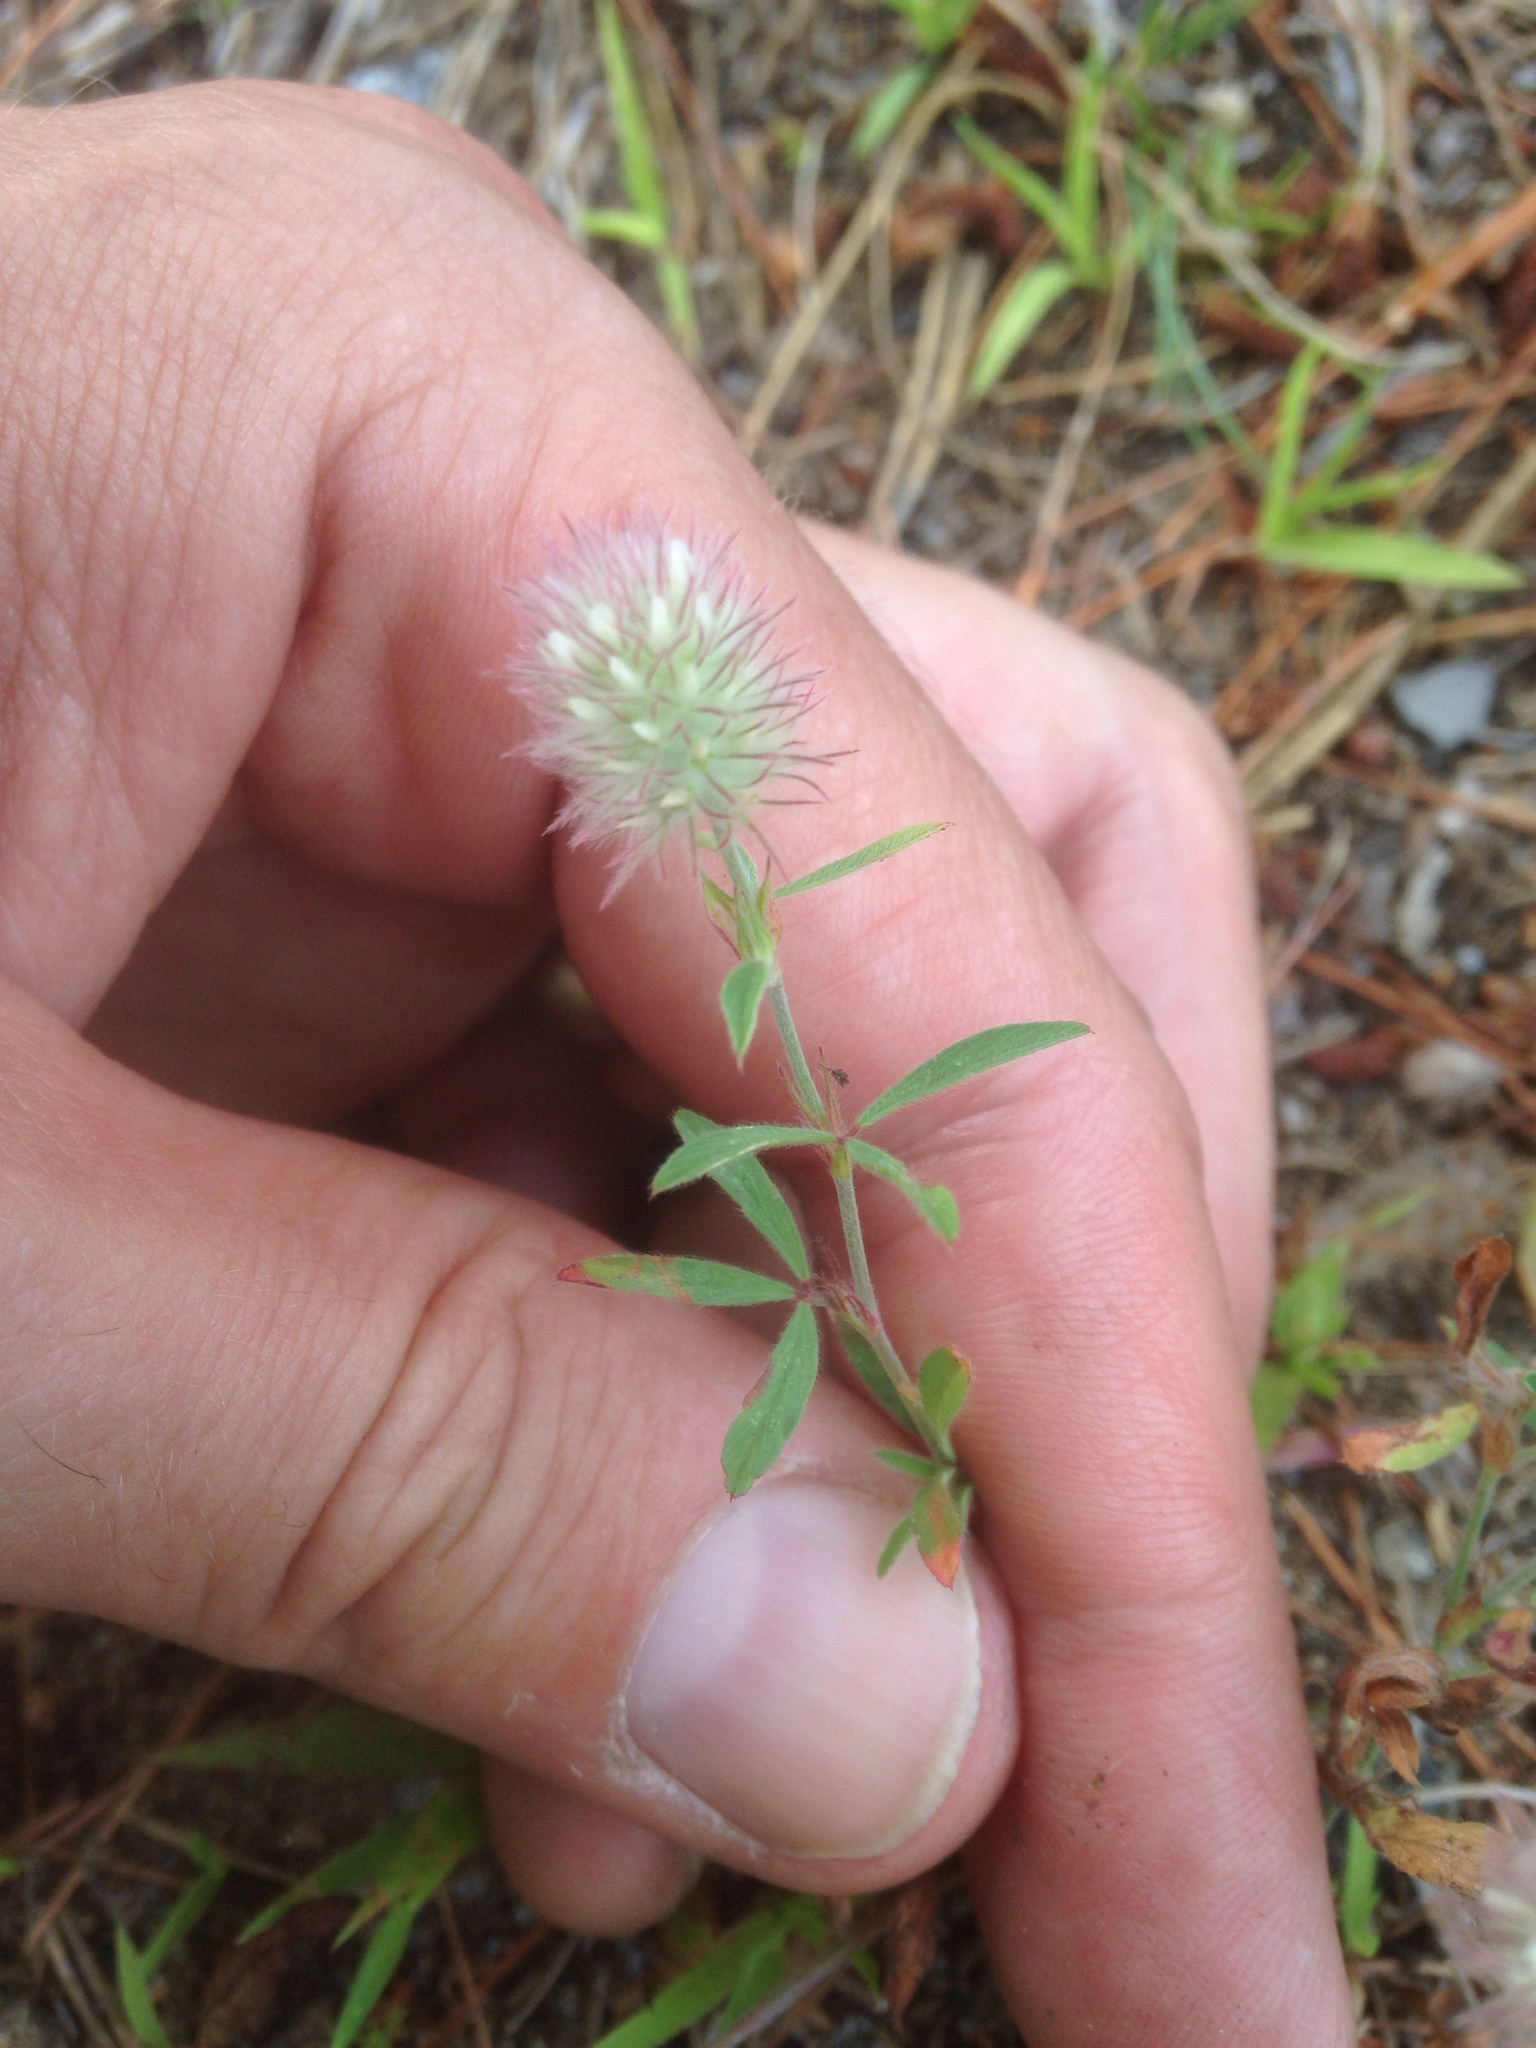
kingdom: Plantae
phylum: Tracheophyta
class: Magnoliopsida
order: Fabales
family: Fabaceae
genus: Trifolium
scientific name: Trifolium arvense
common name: Hare's-foot clover
